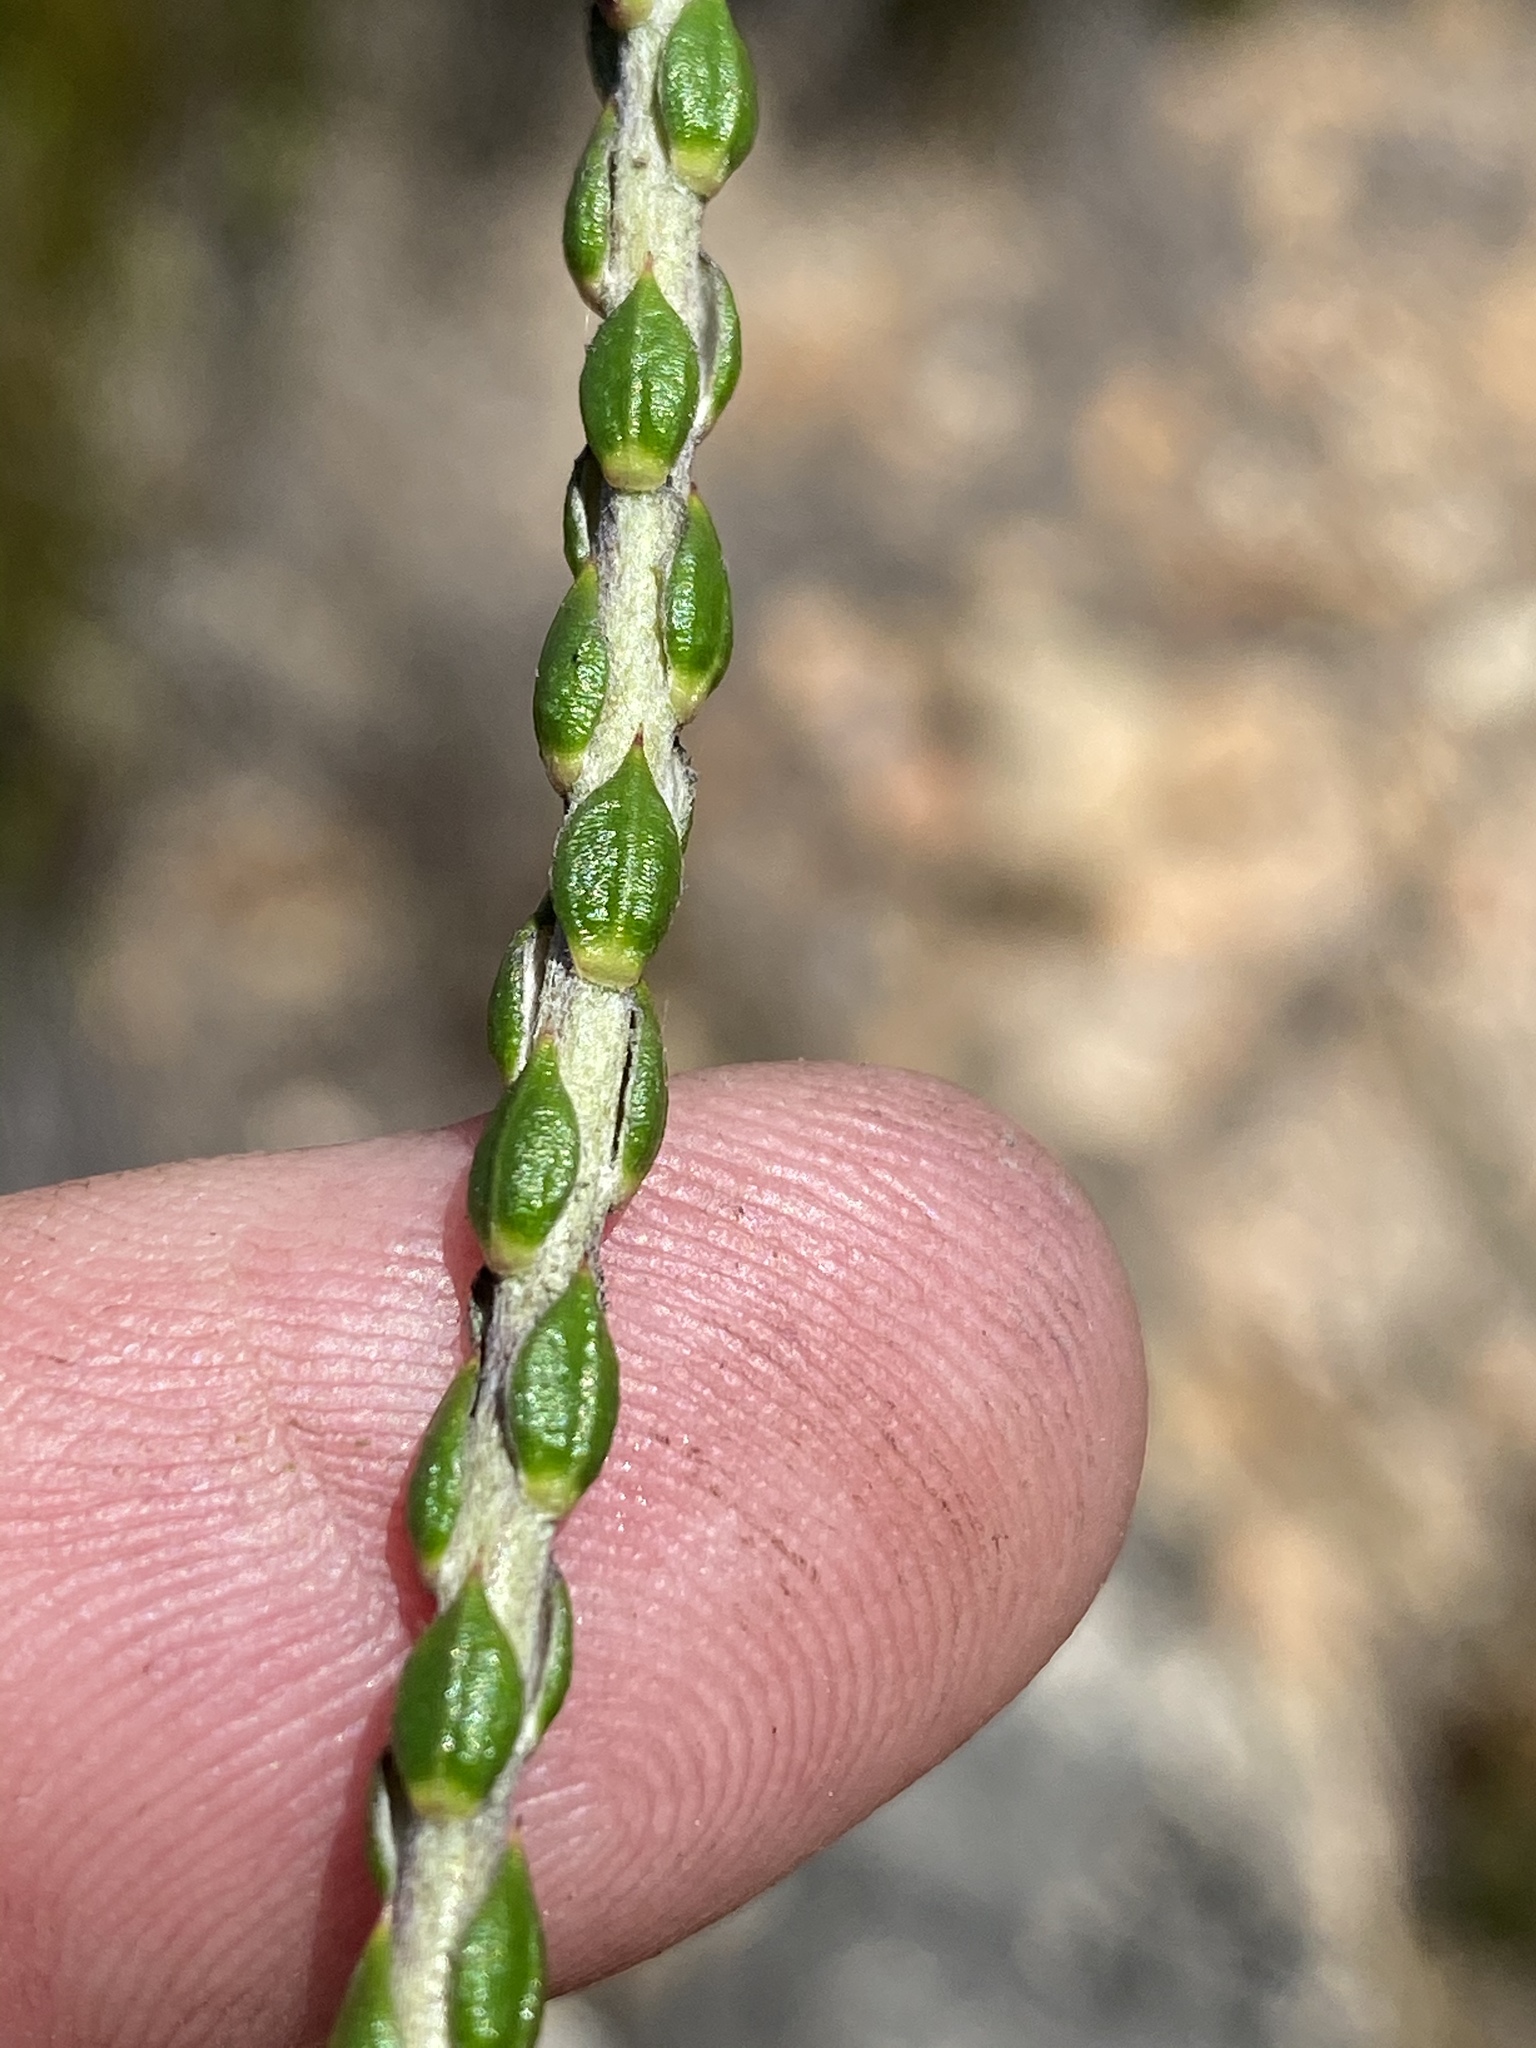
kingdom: Plantae
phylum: Tracheophyta
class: Magnoliopsida
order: Asterales
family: Asteraceae
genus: Metalasia
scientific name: Metalasia pulcherrima
